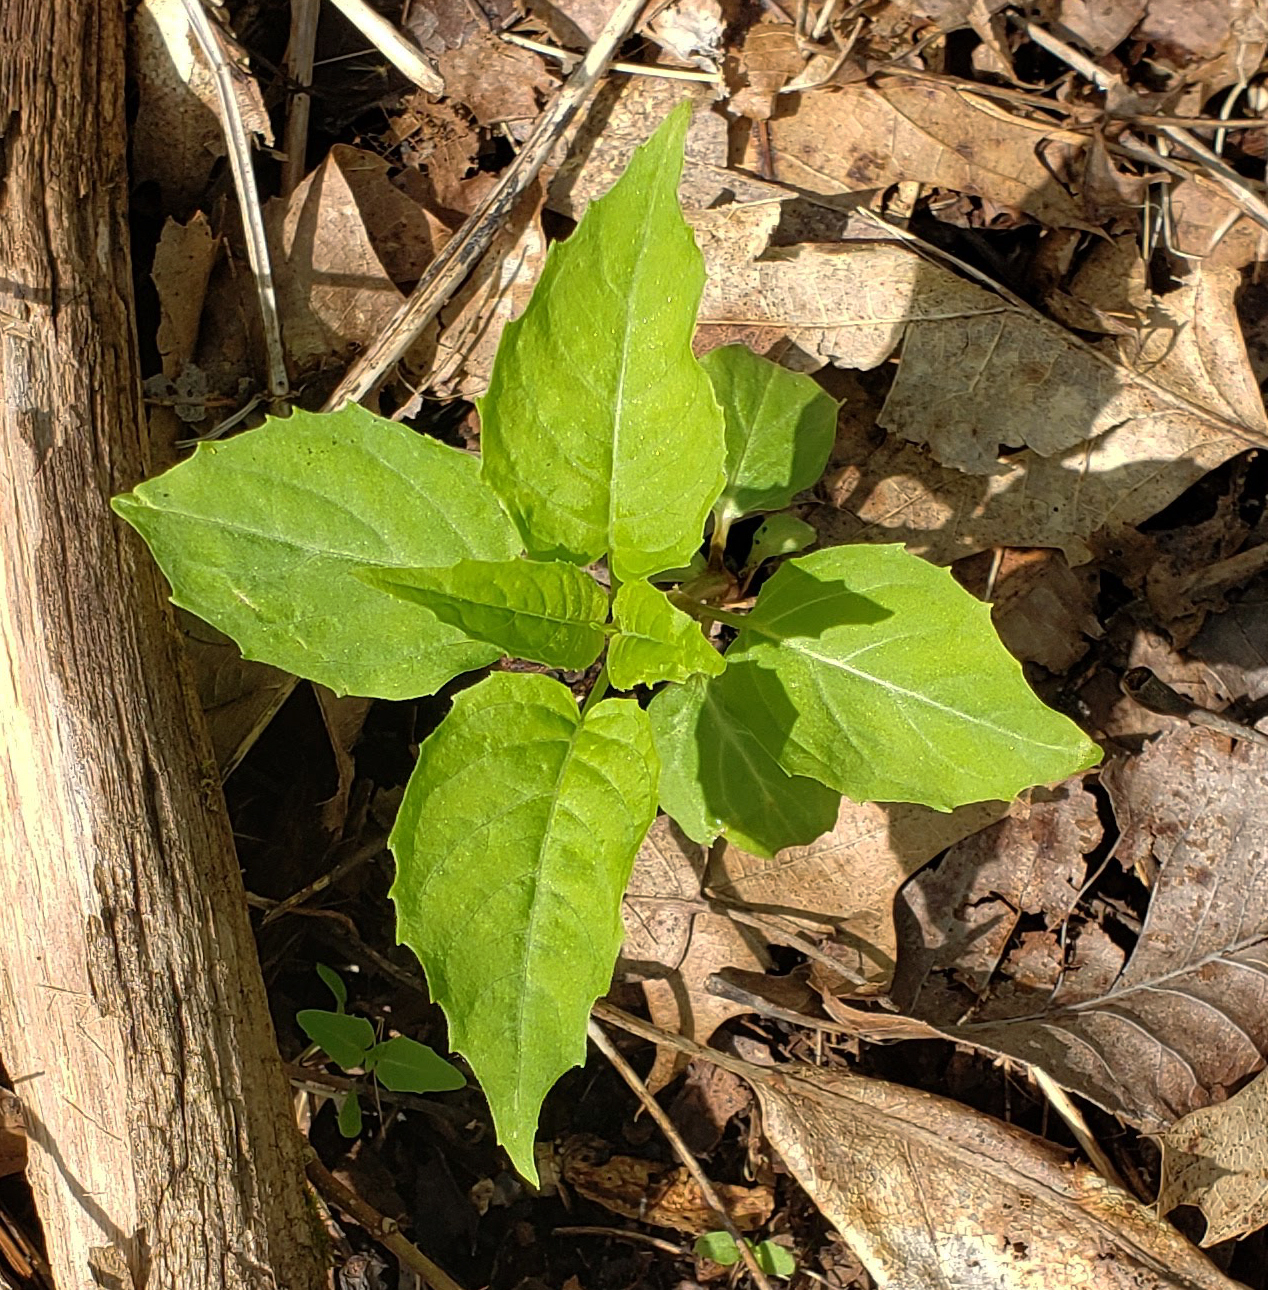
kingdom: Plantae
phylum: Tracheophyta
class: Magnoliopsida
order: Myrtales
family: Onagraceae
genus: Circaea
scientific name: Circaea canadensis
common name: Broad-leaved enchanter's nightshade
